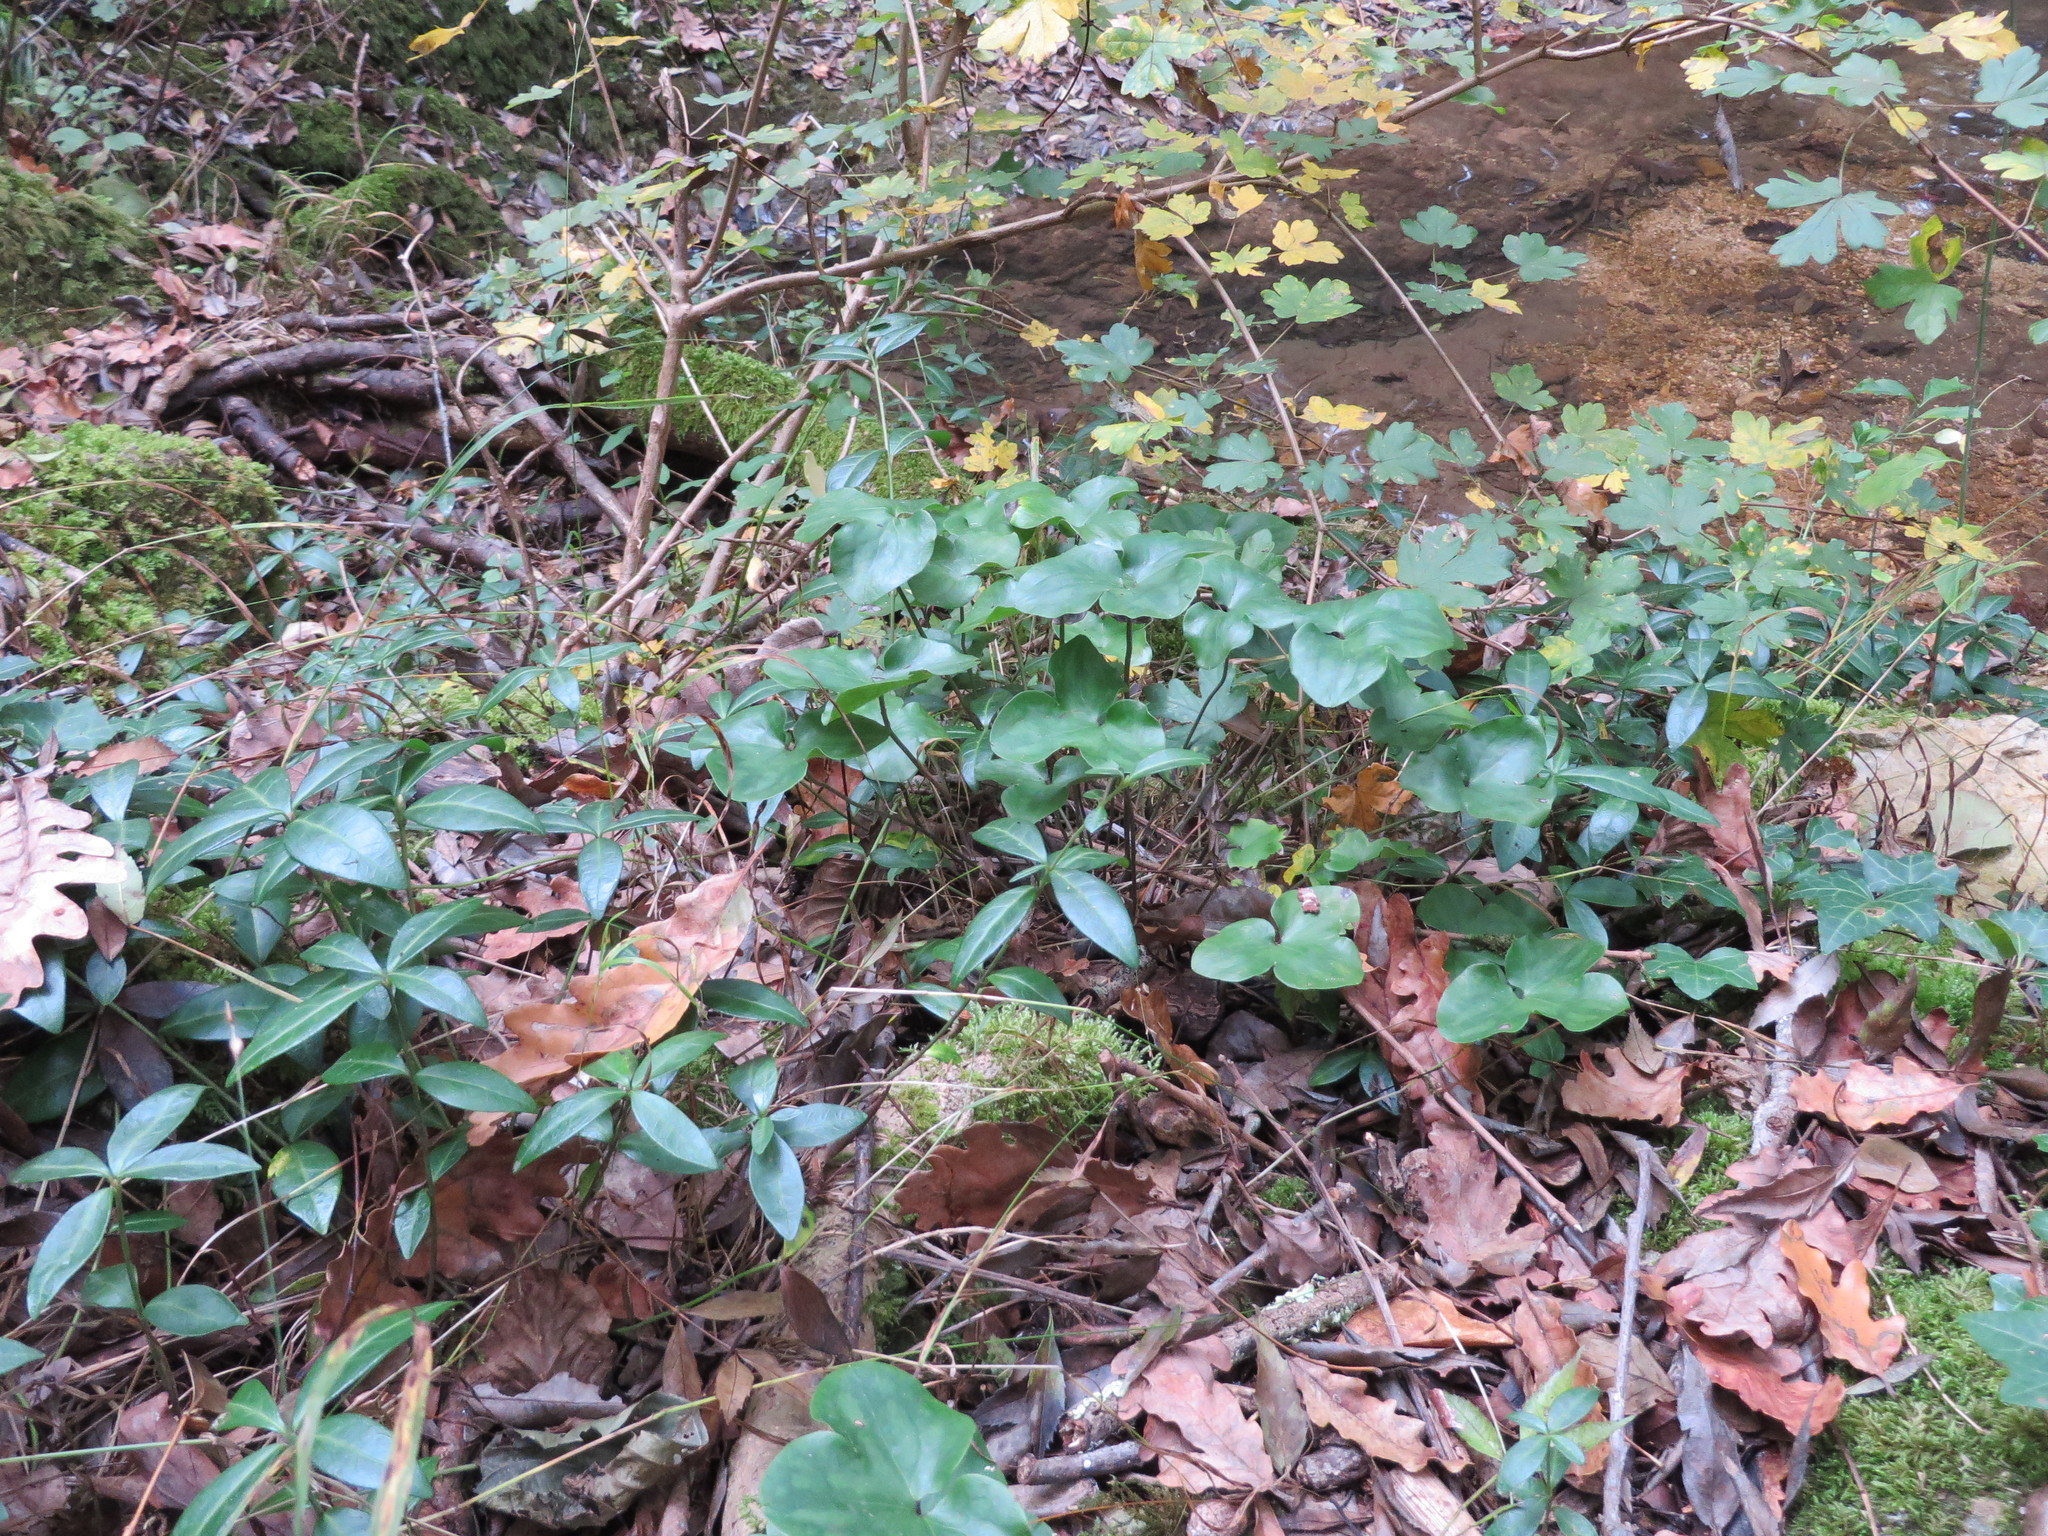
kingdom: Plantae
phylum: Tracheophyta
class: Magnoliopsida
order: Gentianales
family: Apocynaceae
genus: Vinca
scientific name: Vinca minor
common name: Lesser periwinkle
